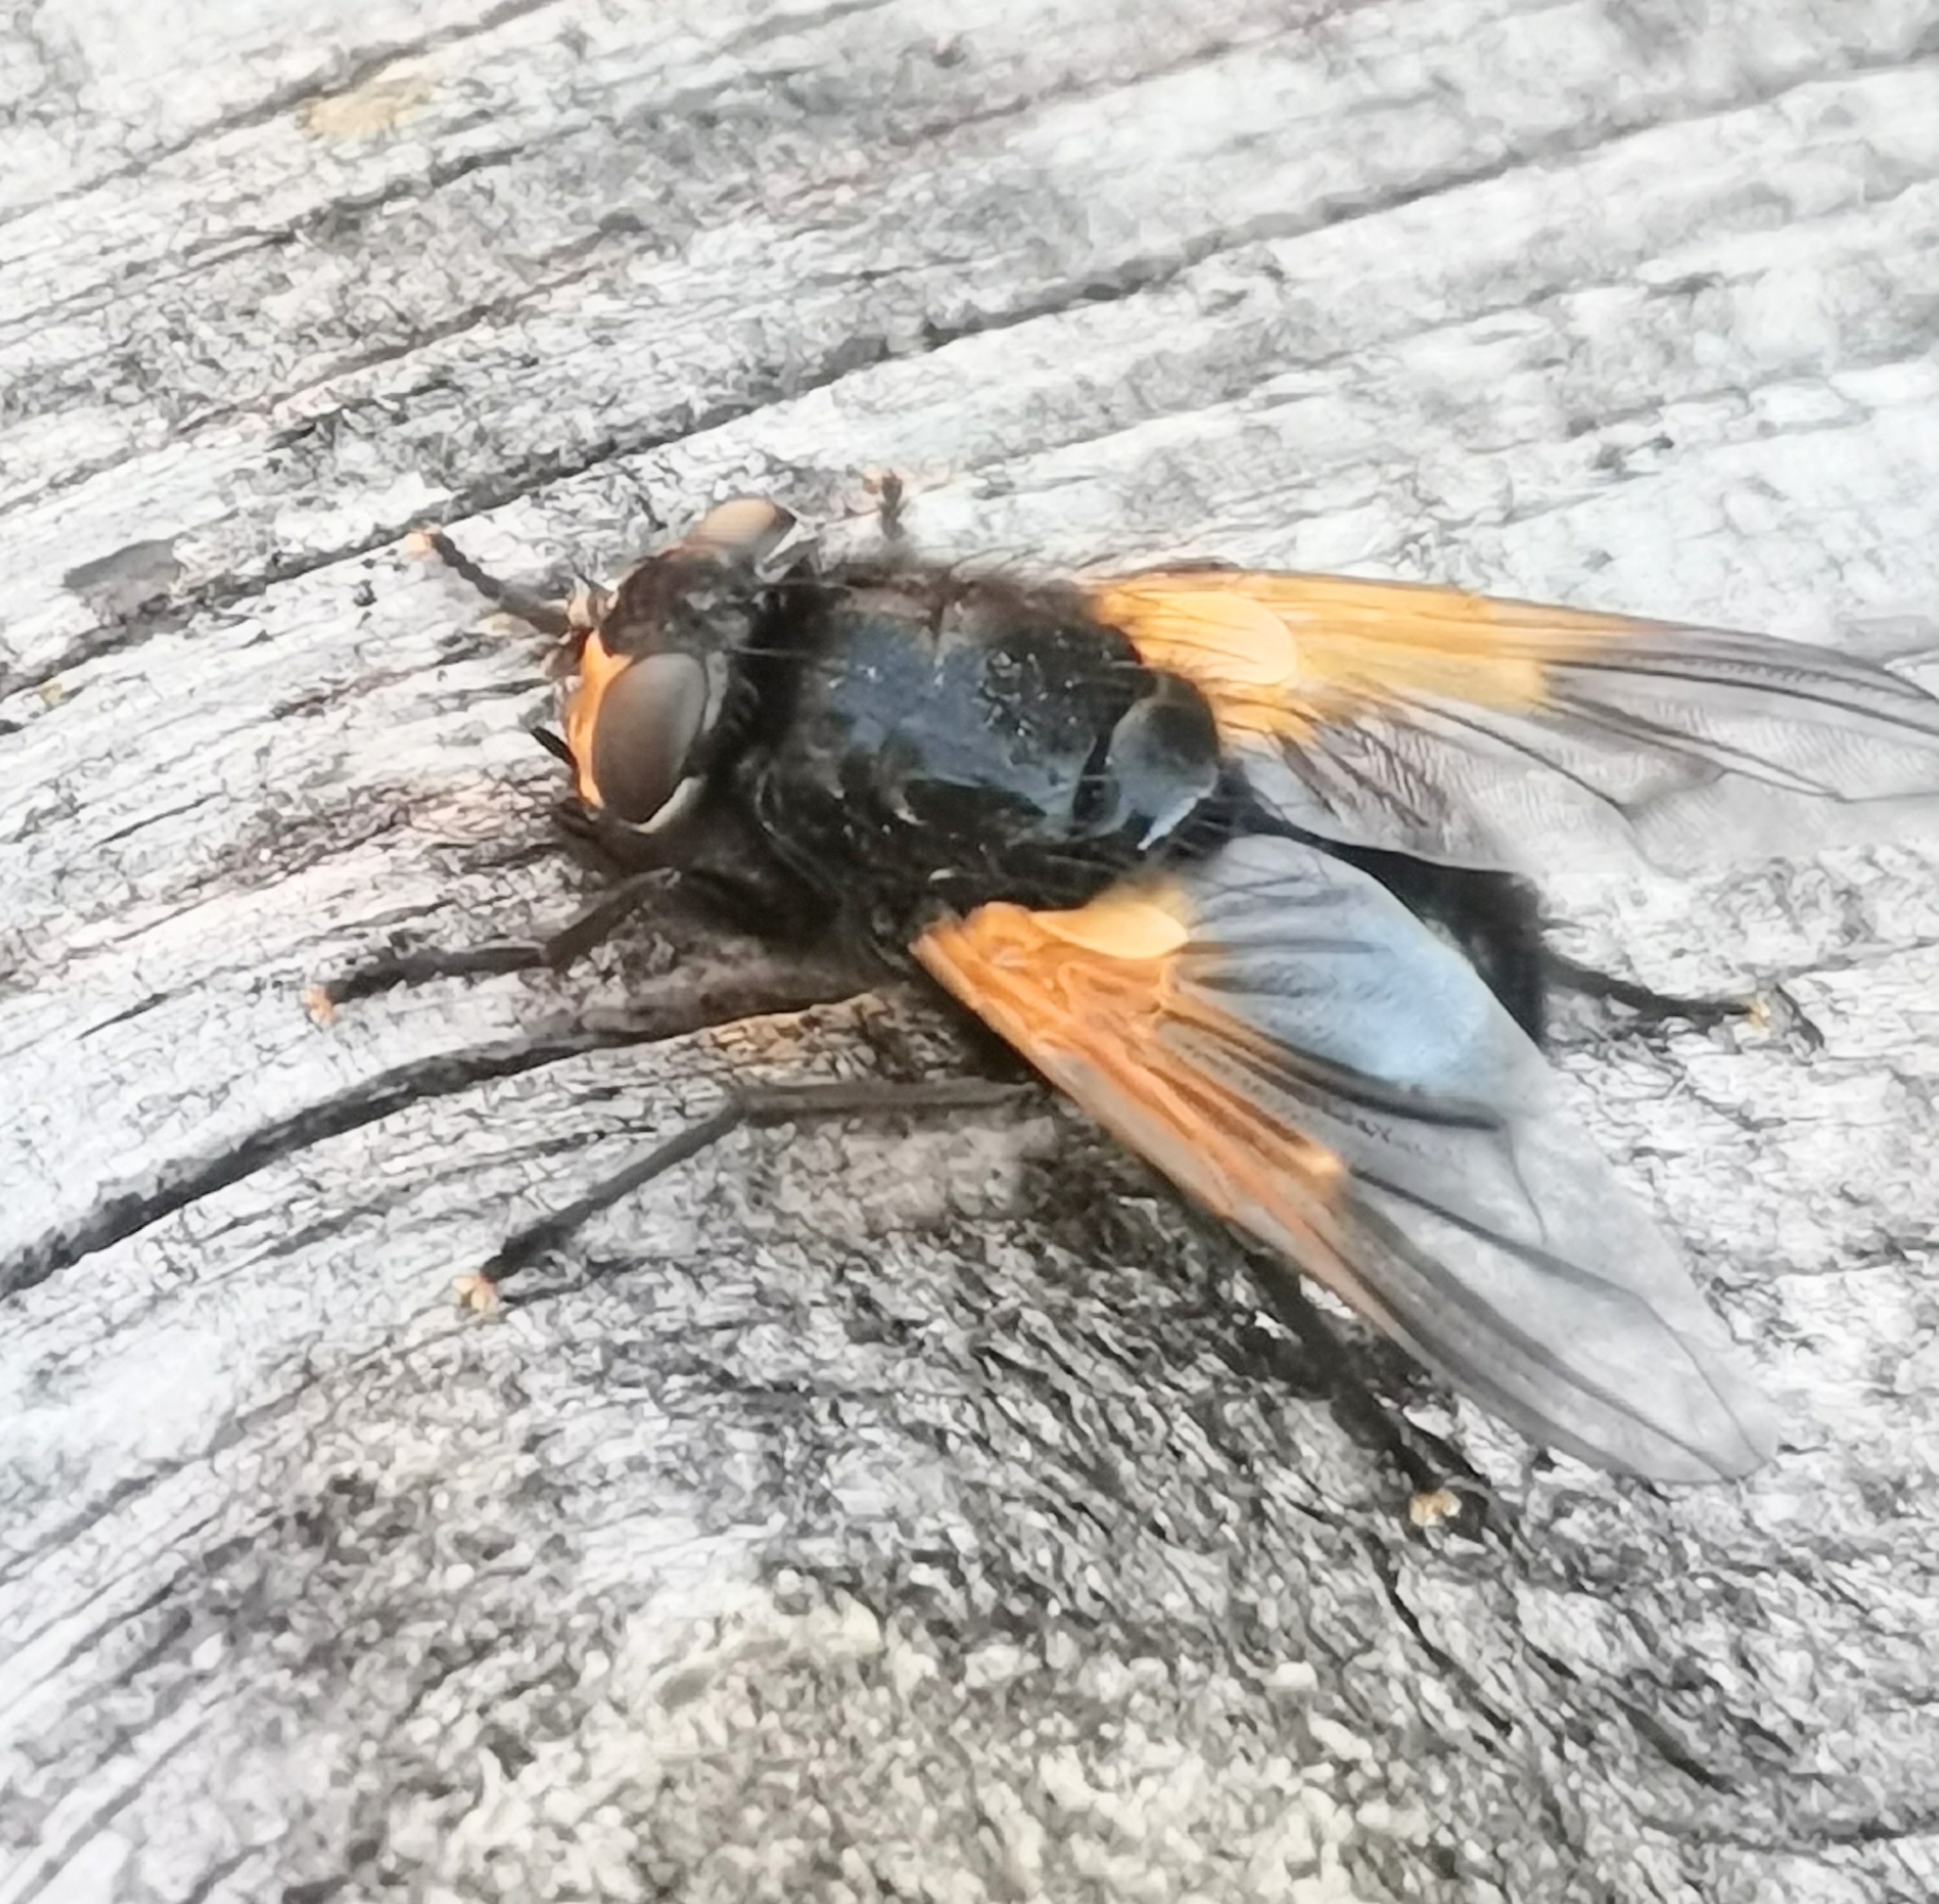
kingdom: Animalia
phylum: Arthropoda
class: Insecta
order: Diptera
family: Muscidae
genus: Mesembrina
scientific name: Mesembrina meridiana
